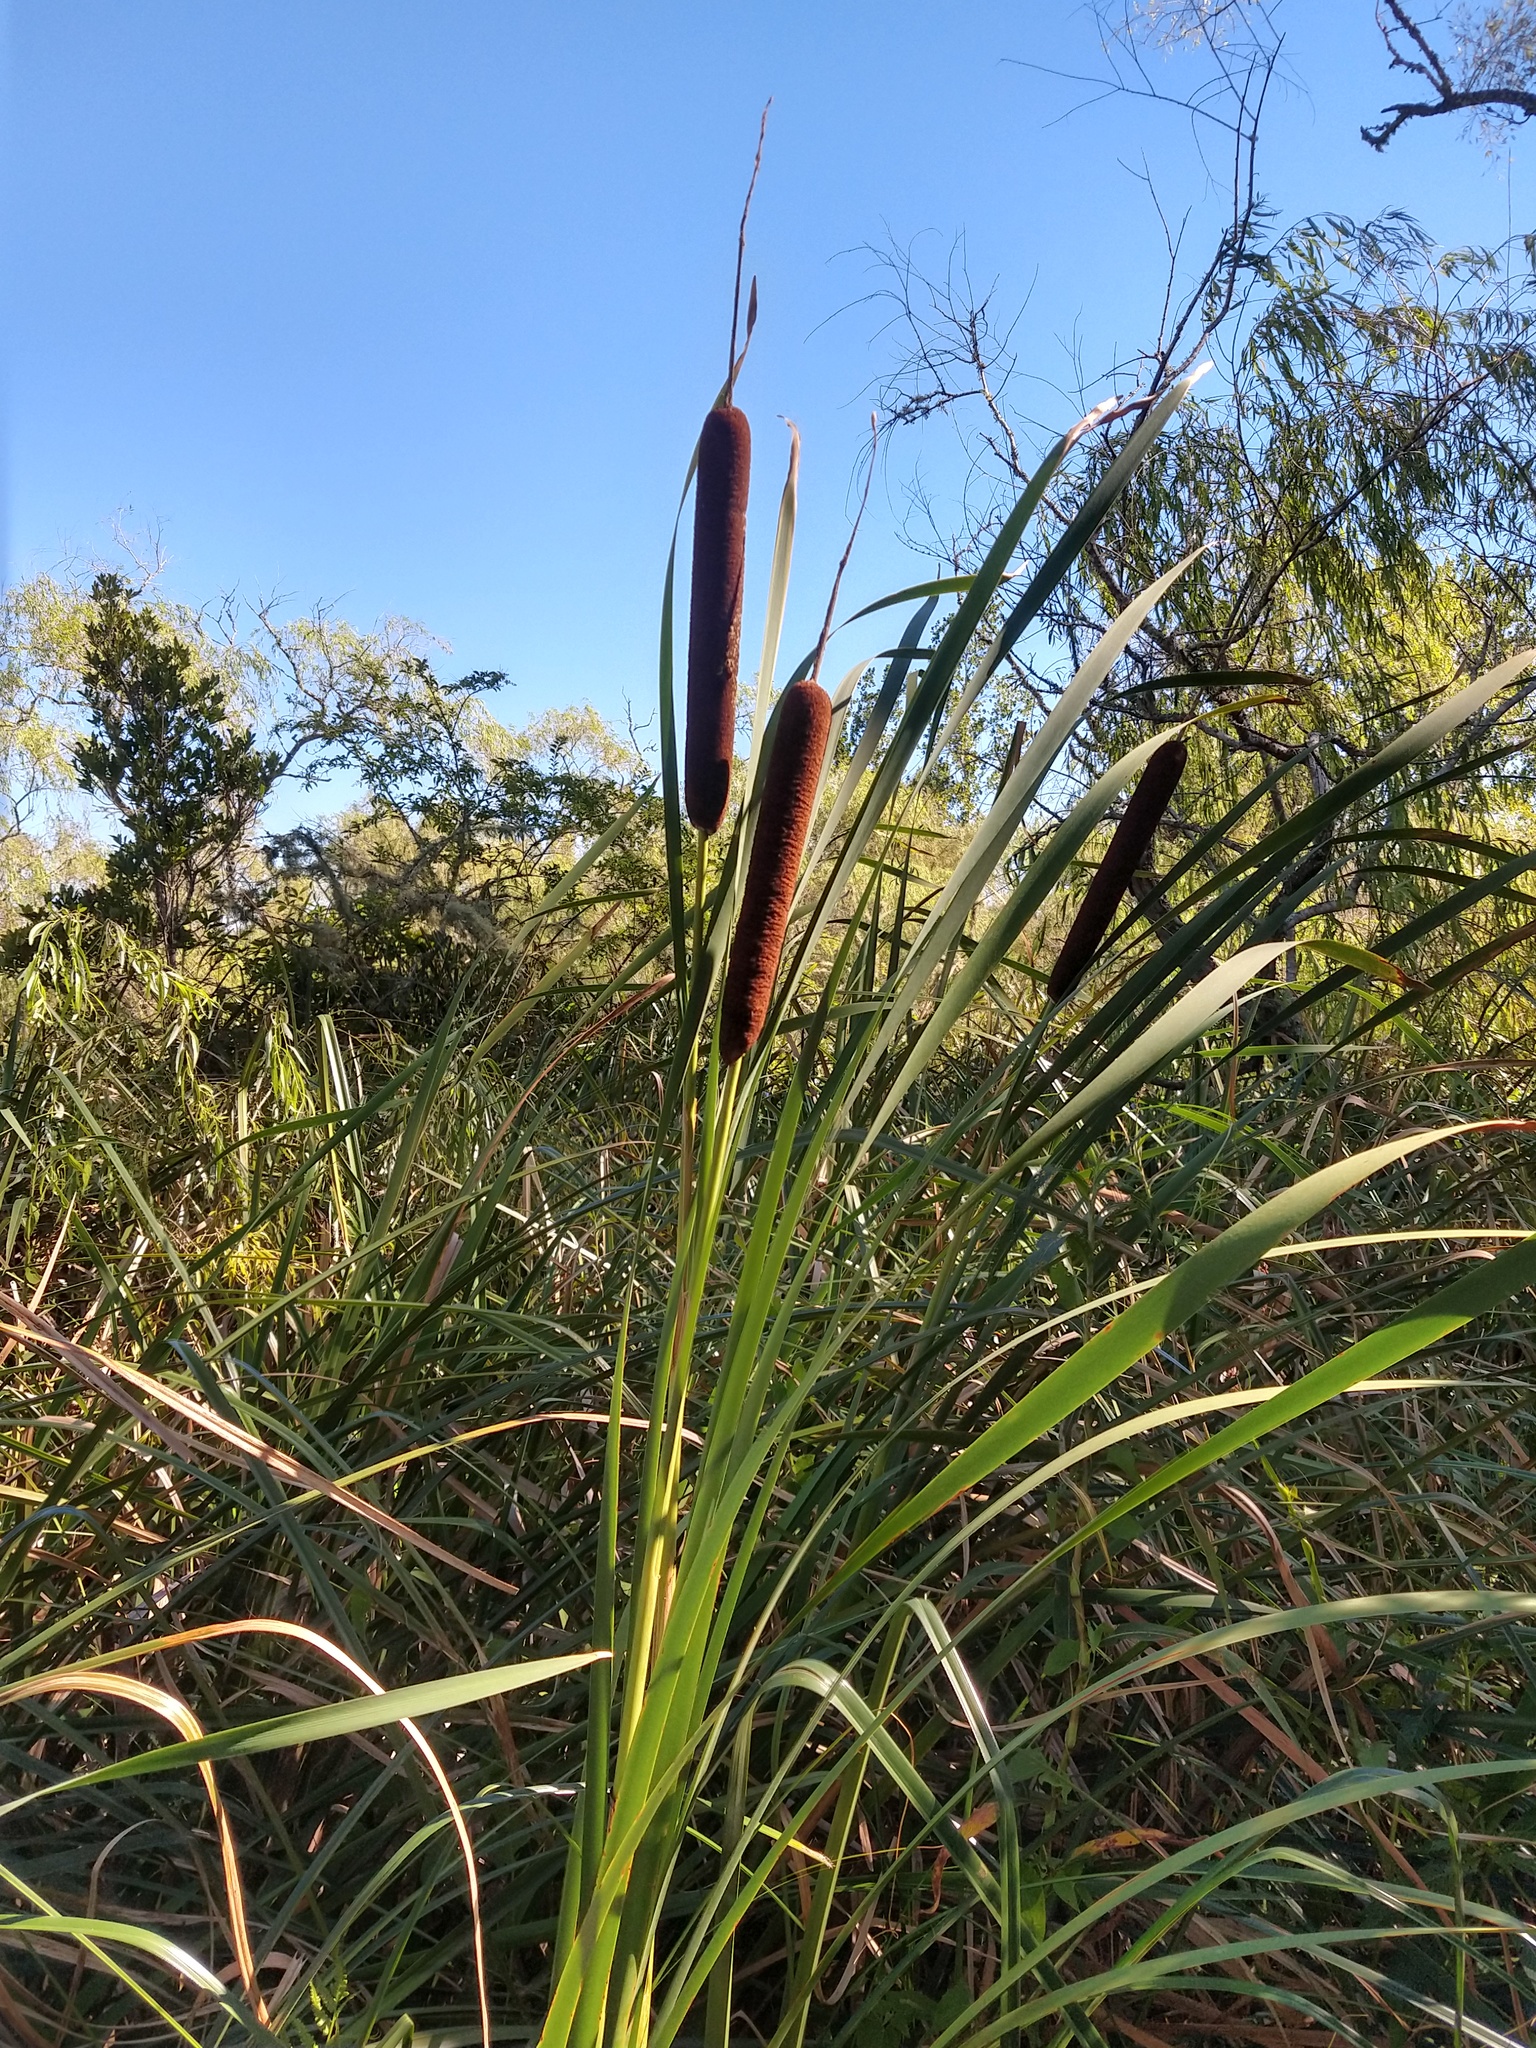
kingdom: Plantae
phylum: Tracheophyta
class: Liliopsida
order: Poales
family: Typhaceae
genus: Typha
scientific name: Typha latifolia
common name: Broadleaf cattail
